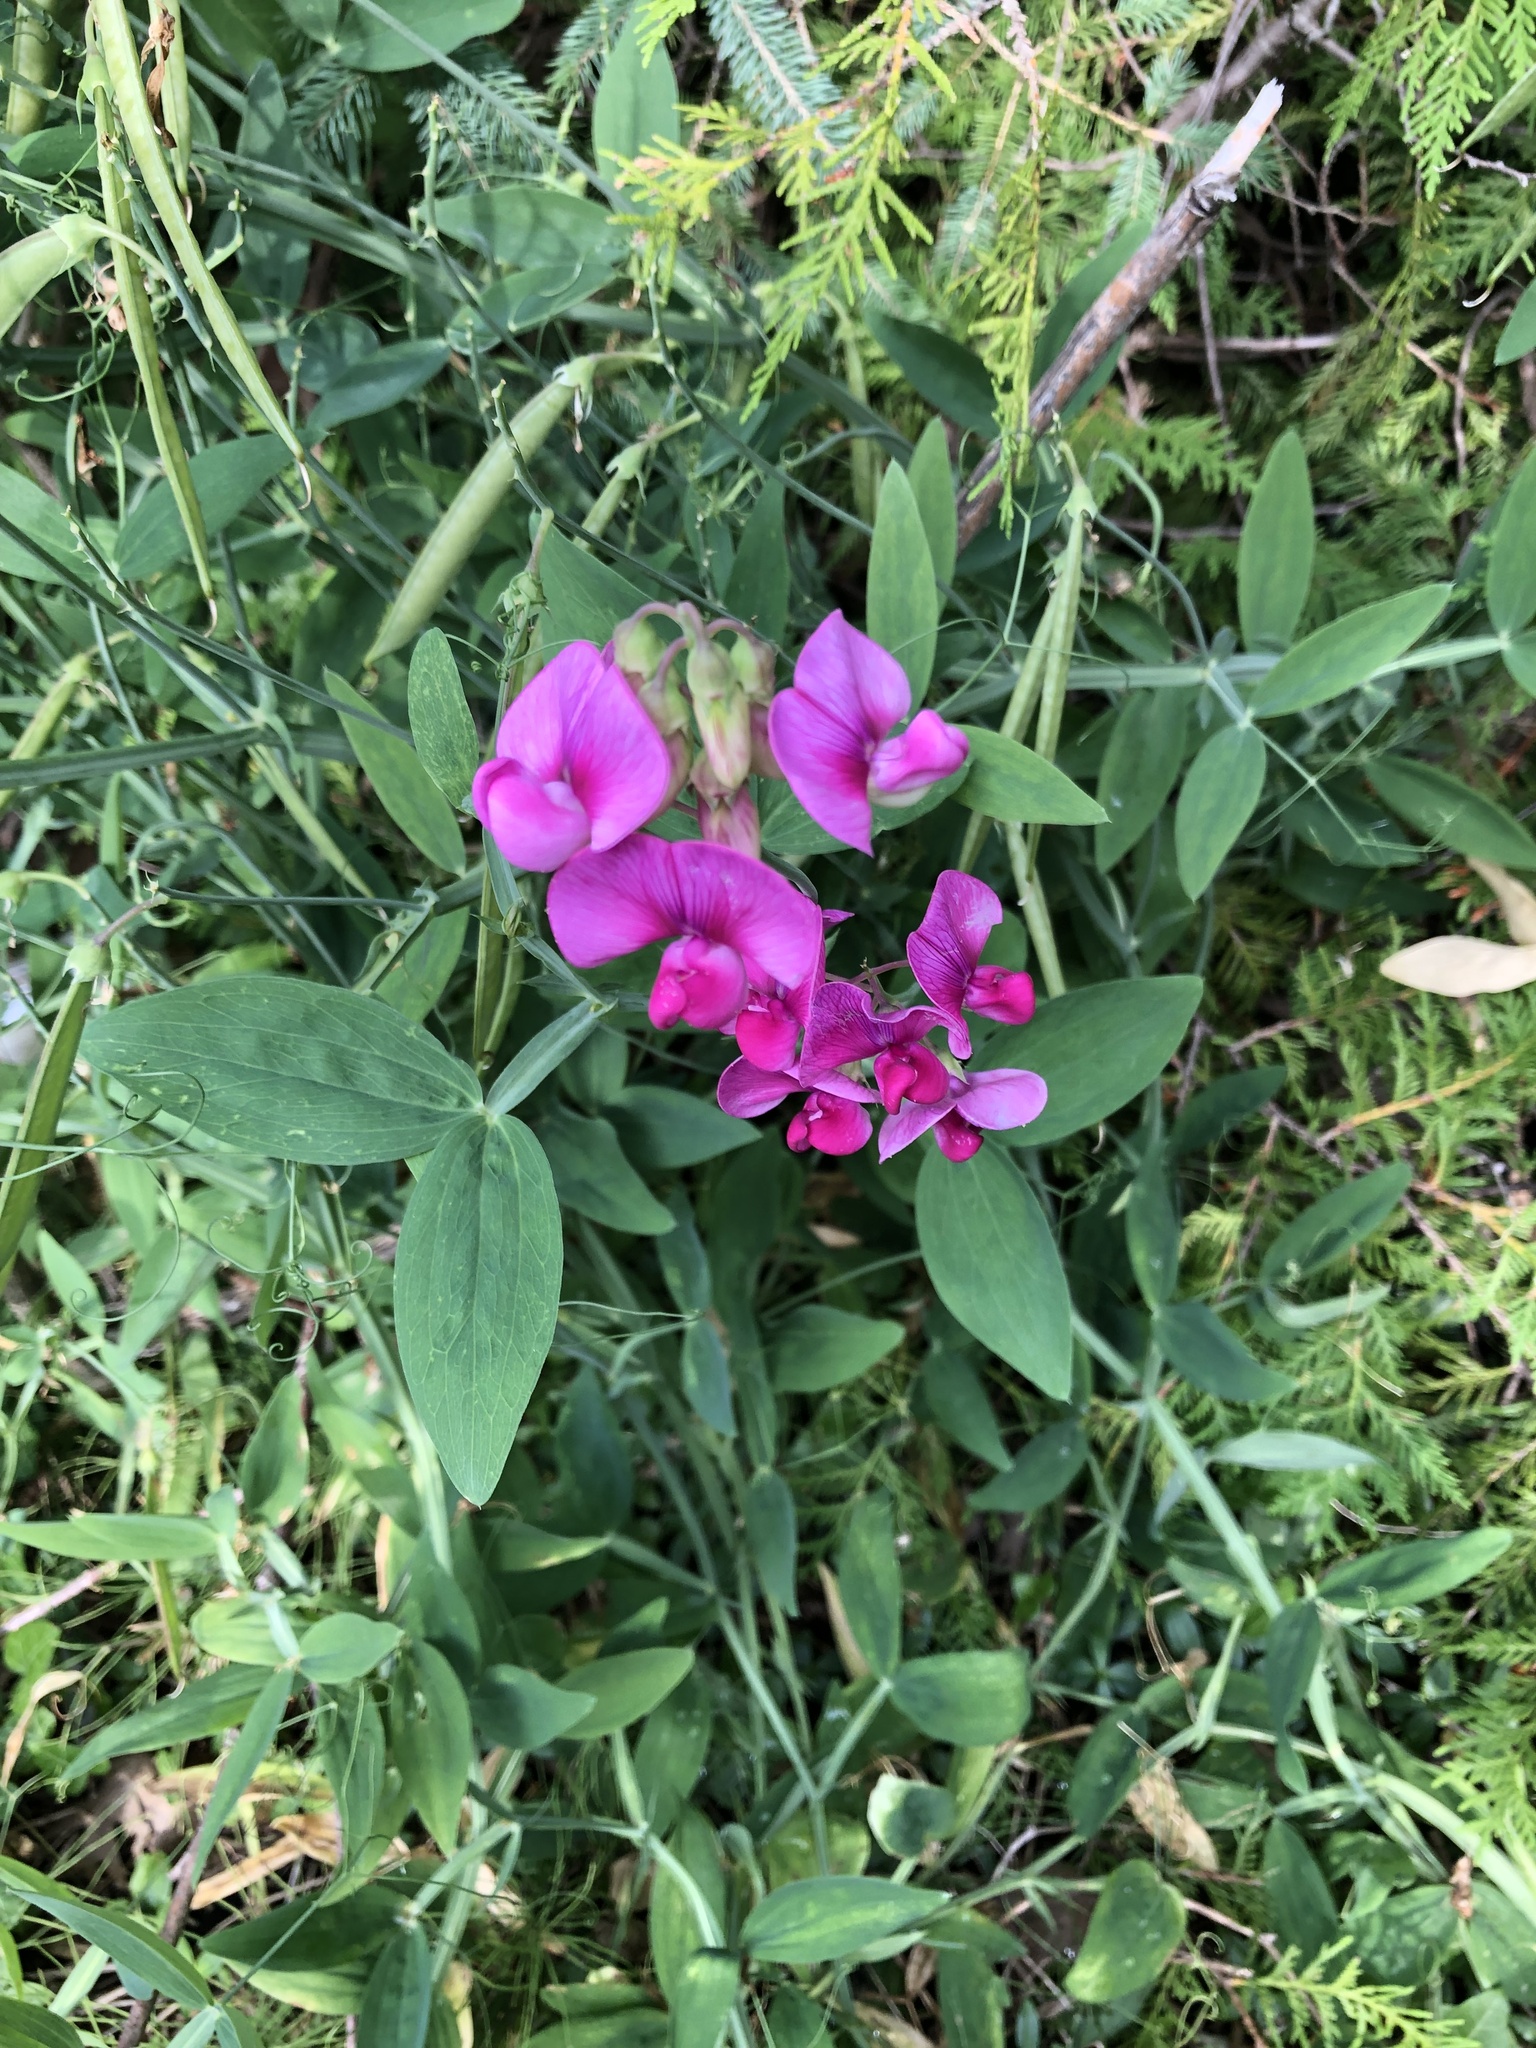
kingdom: Plantae
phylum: Tracheophyta
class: Magnoliopsida
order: Fabales
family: Fabaceae
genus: Lathyrus
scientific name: Lathyrus latifolius
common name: Perennial pea
